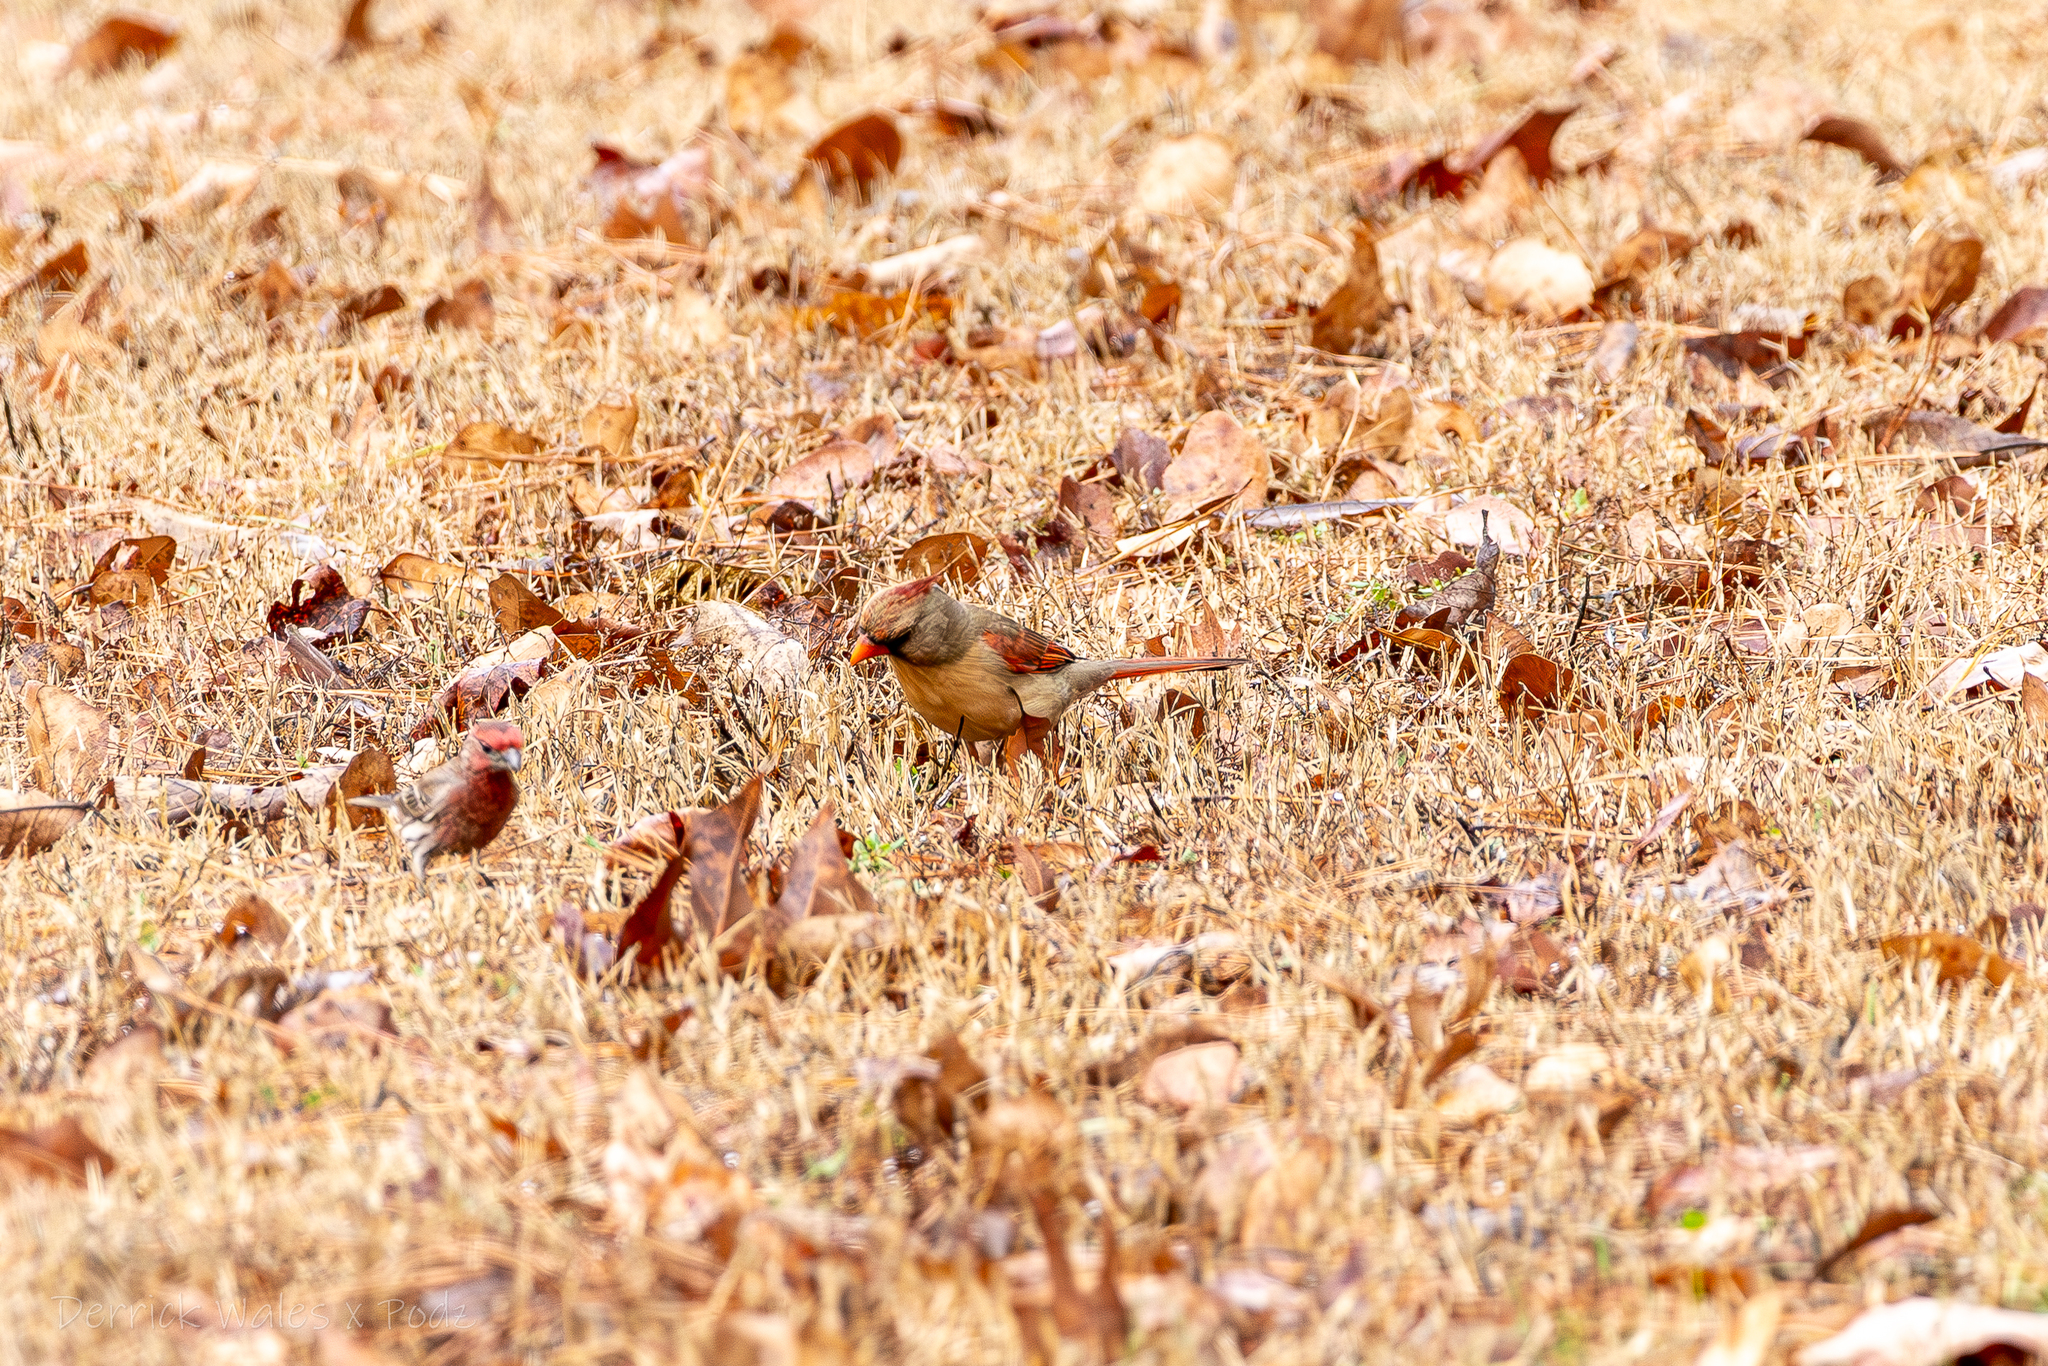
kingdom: Animalia
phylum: Chordata
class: Aves
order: Passeriformes
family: Cardinalidae
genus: Cardinalis
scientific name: Cardinalis cardinalis
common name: Northern cardinal
